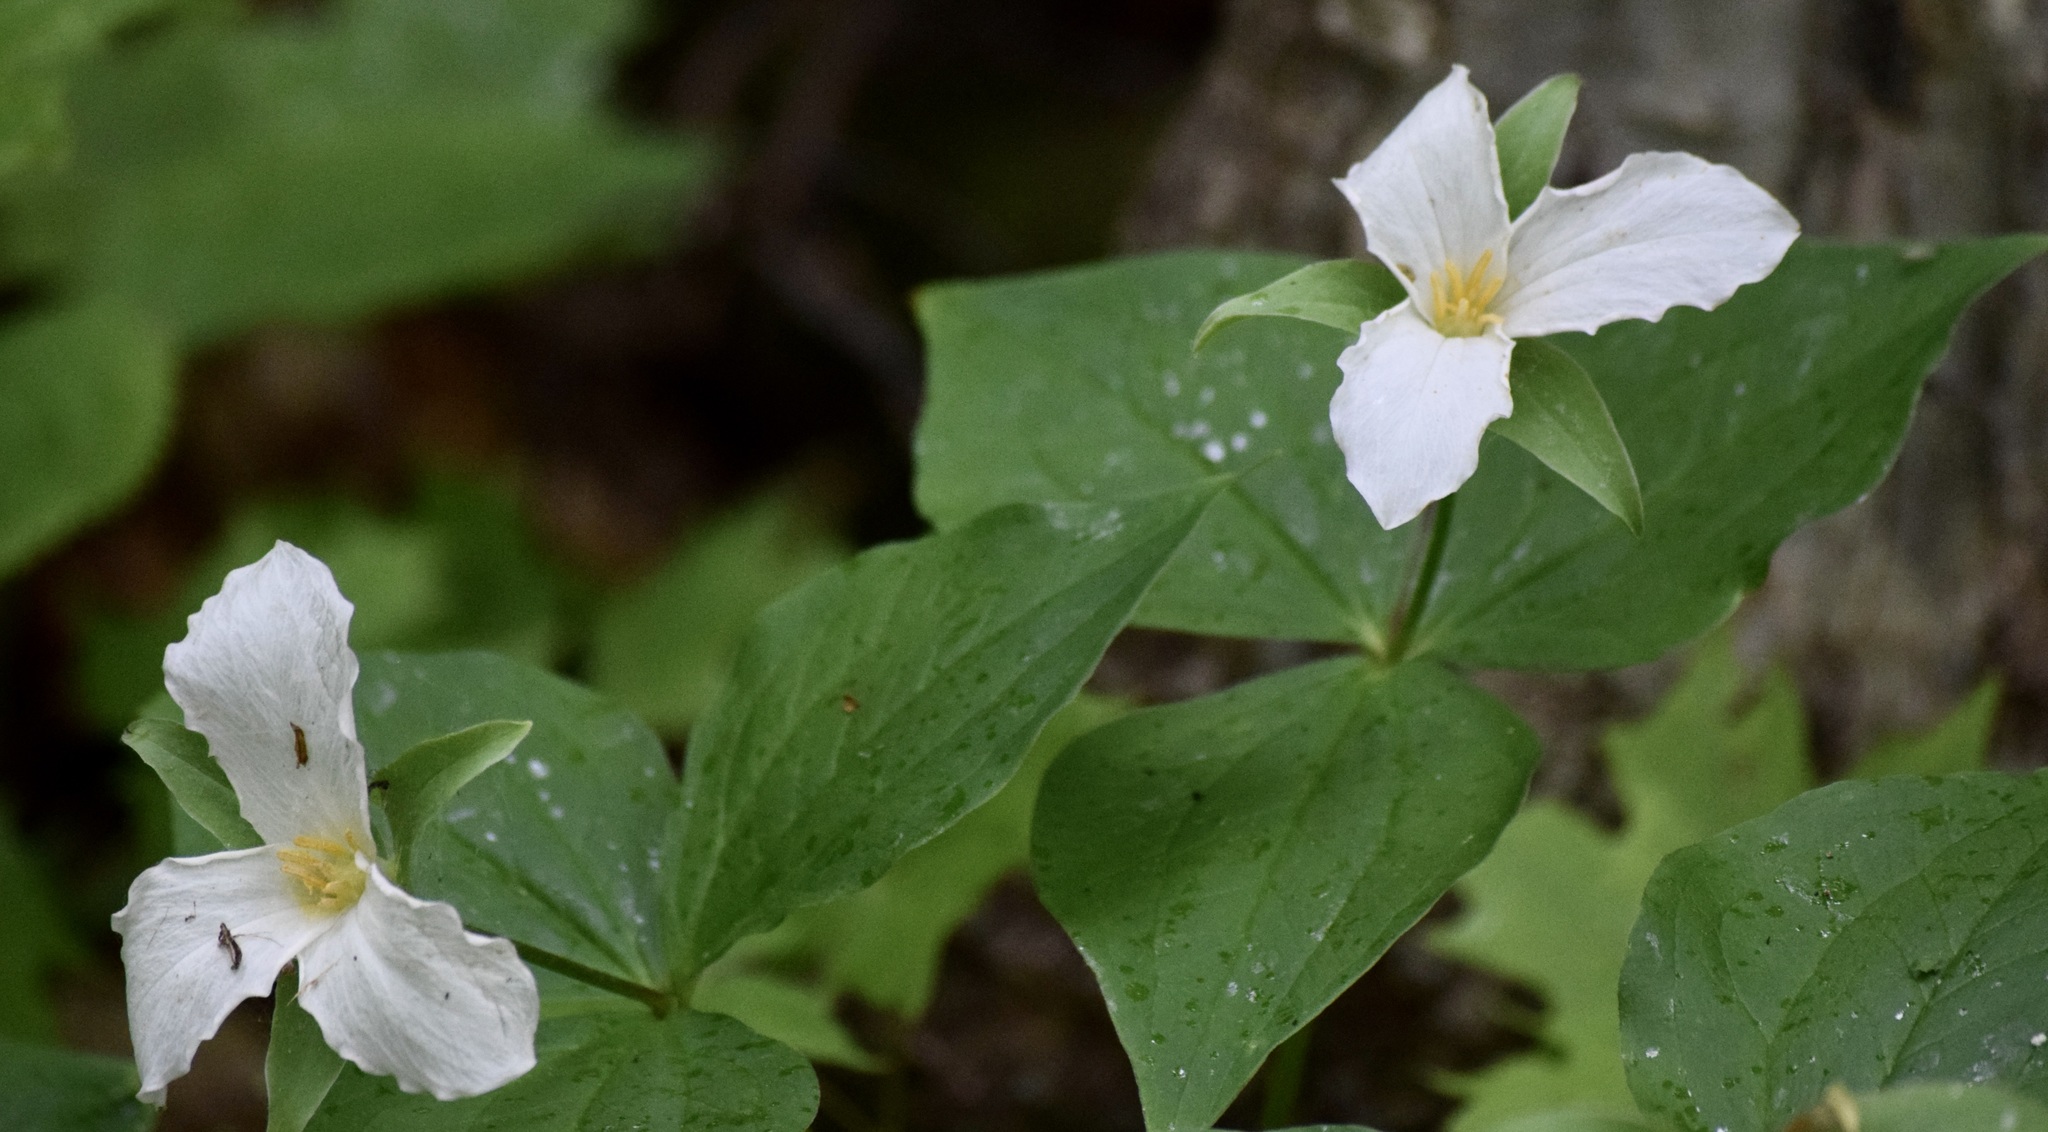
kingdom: Plantae
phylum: Tracheophyta
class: Liliopsida
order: Liliales
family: Melanthiaceae
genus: Trillium
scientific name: Trillium grandiflorum
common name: Great white trillium
